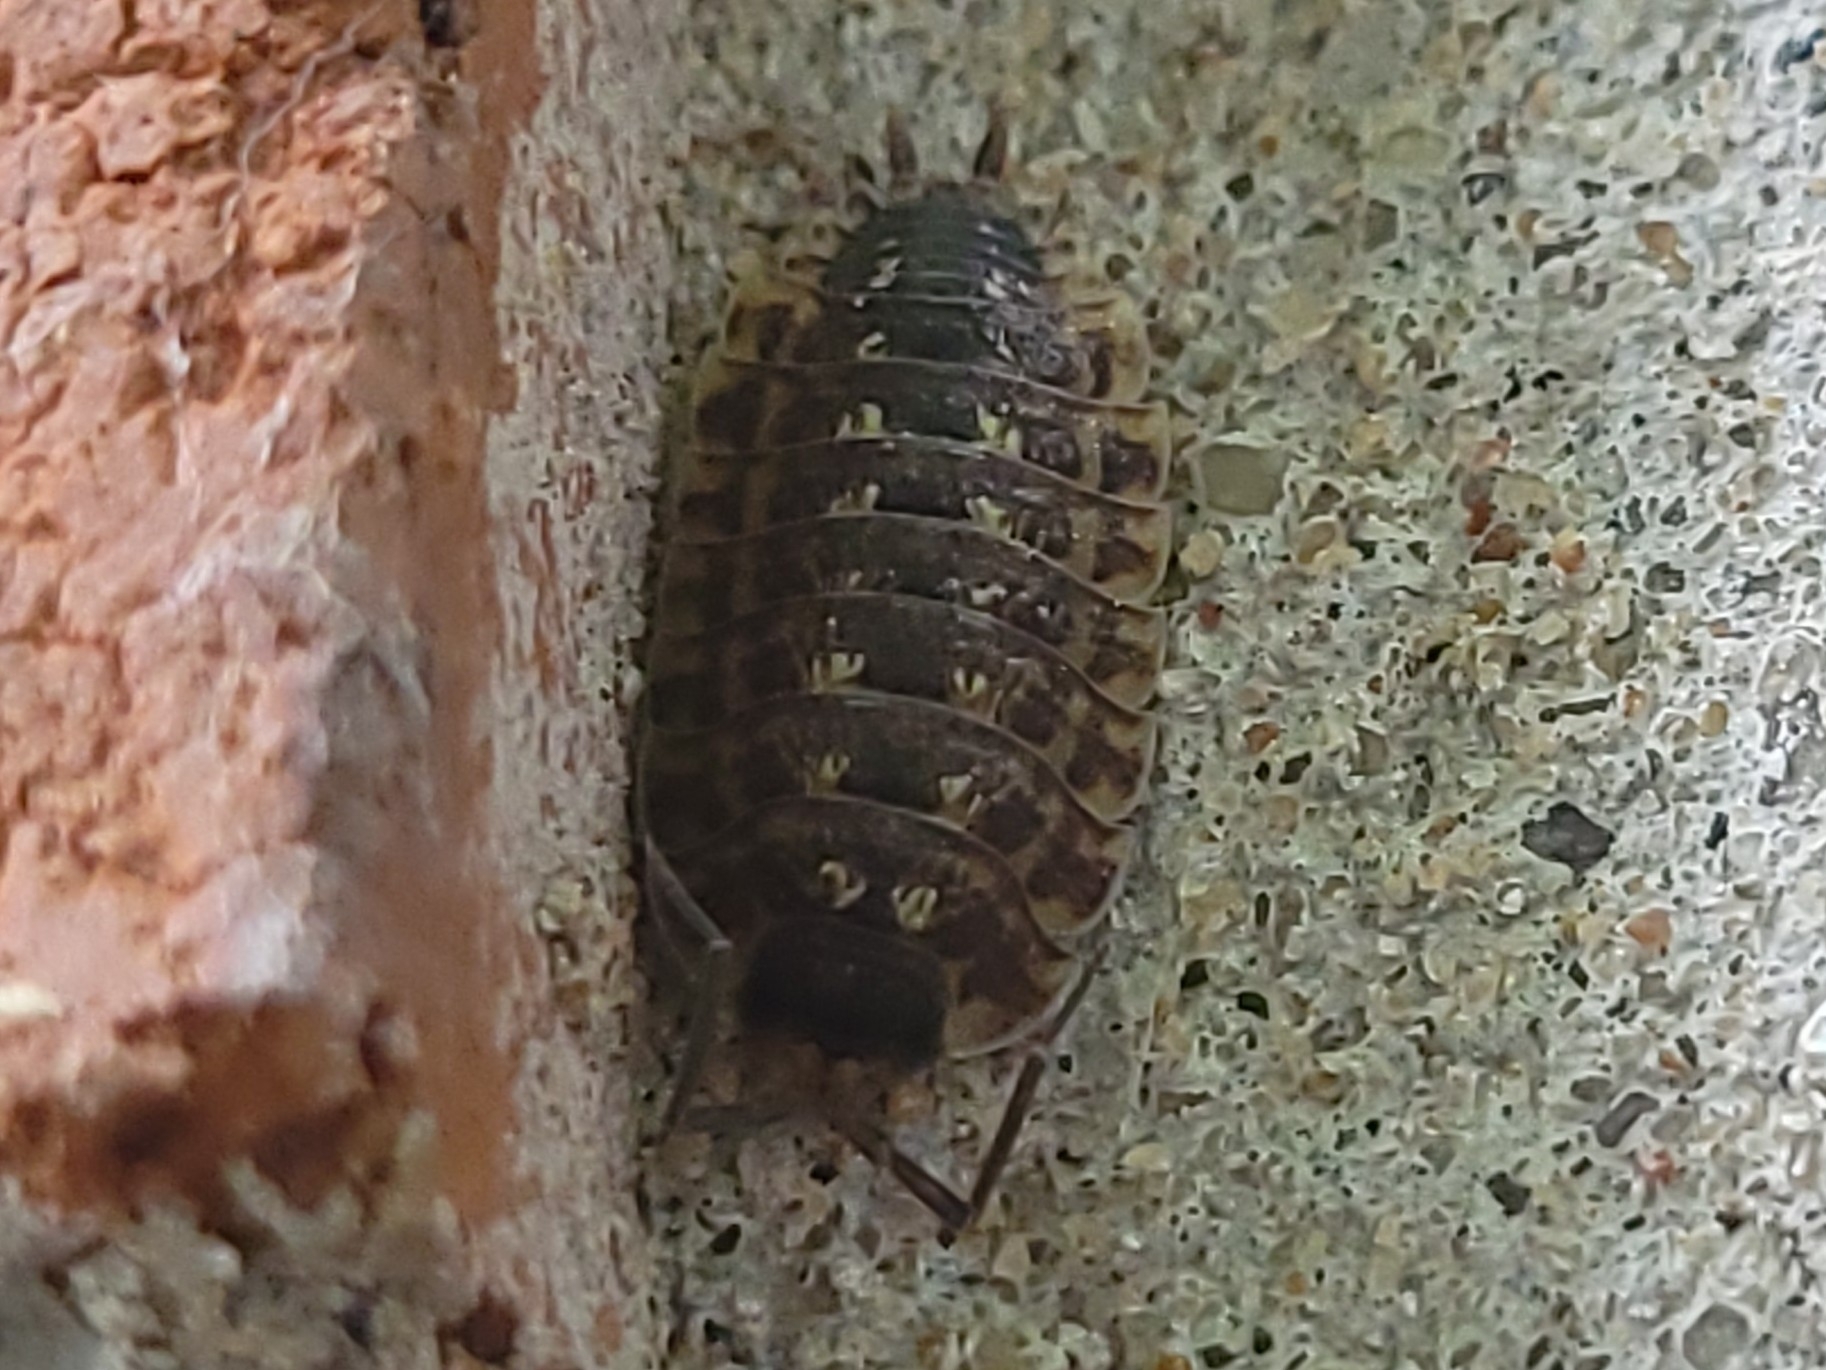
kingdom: Animalia
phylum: Arthropoda
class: Malacostraca
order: Isopoda
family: Porcellionidae
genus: Porcellio
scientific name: Porcellio spinicornis
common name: Painted woodlouse
